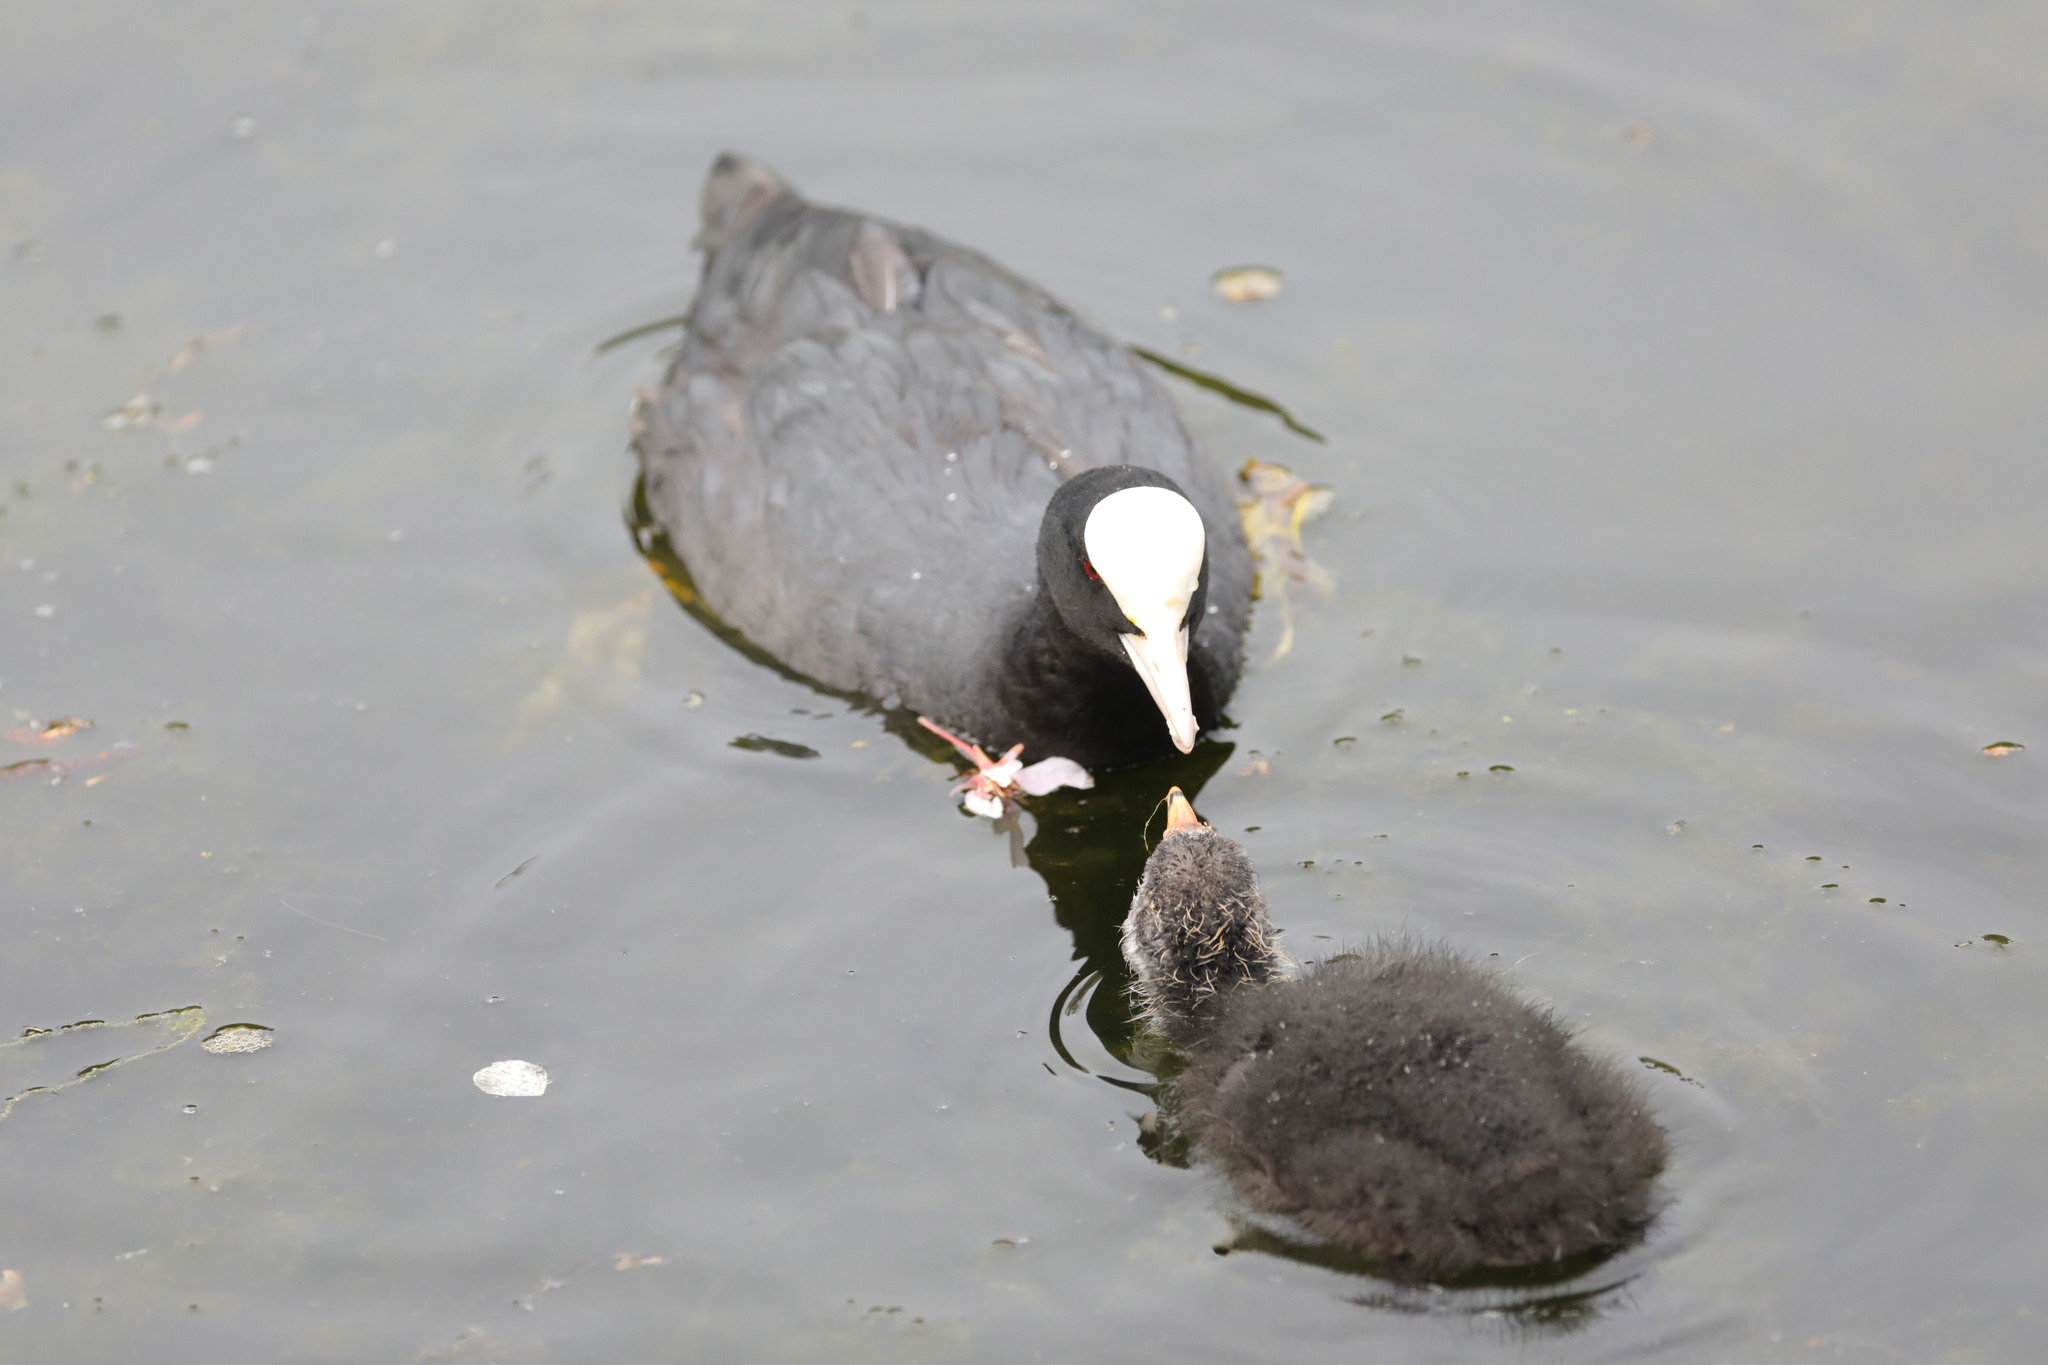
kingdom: Animalia
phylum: Chordata
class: Aves
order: Gruiformes
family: Rallidae
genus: Fulica
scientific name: Fulica atra
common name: Eurasian coot
